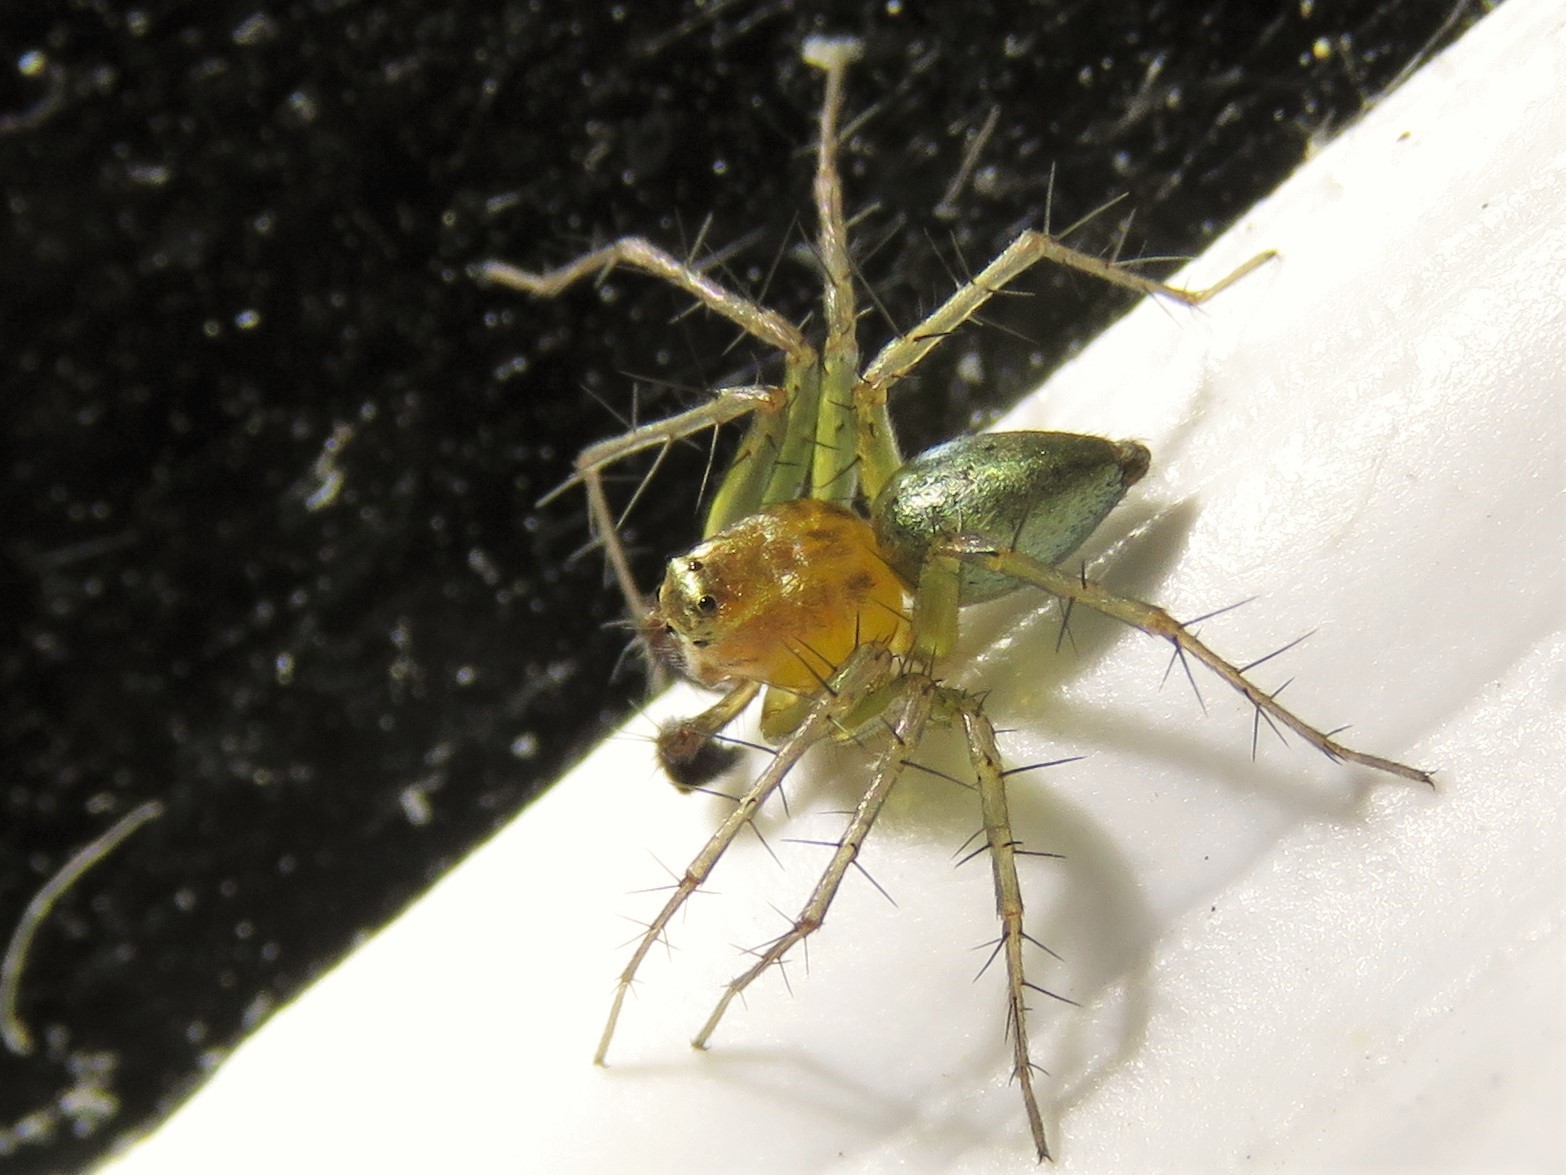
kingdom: Animalia
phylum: Arthropoda
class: Arachnida
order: Araneae
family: Oxyopidae
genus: Oxyopes
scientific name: Oxyopes salticus
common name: Lynx spiders
